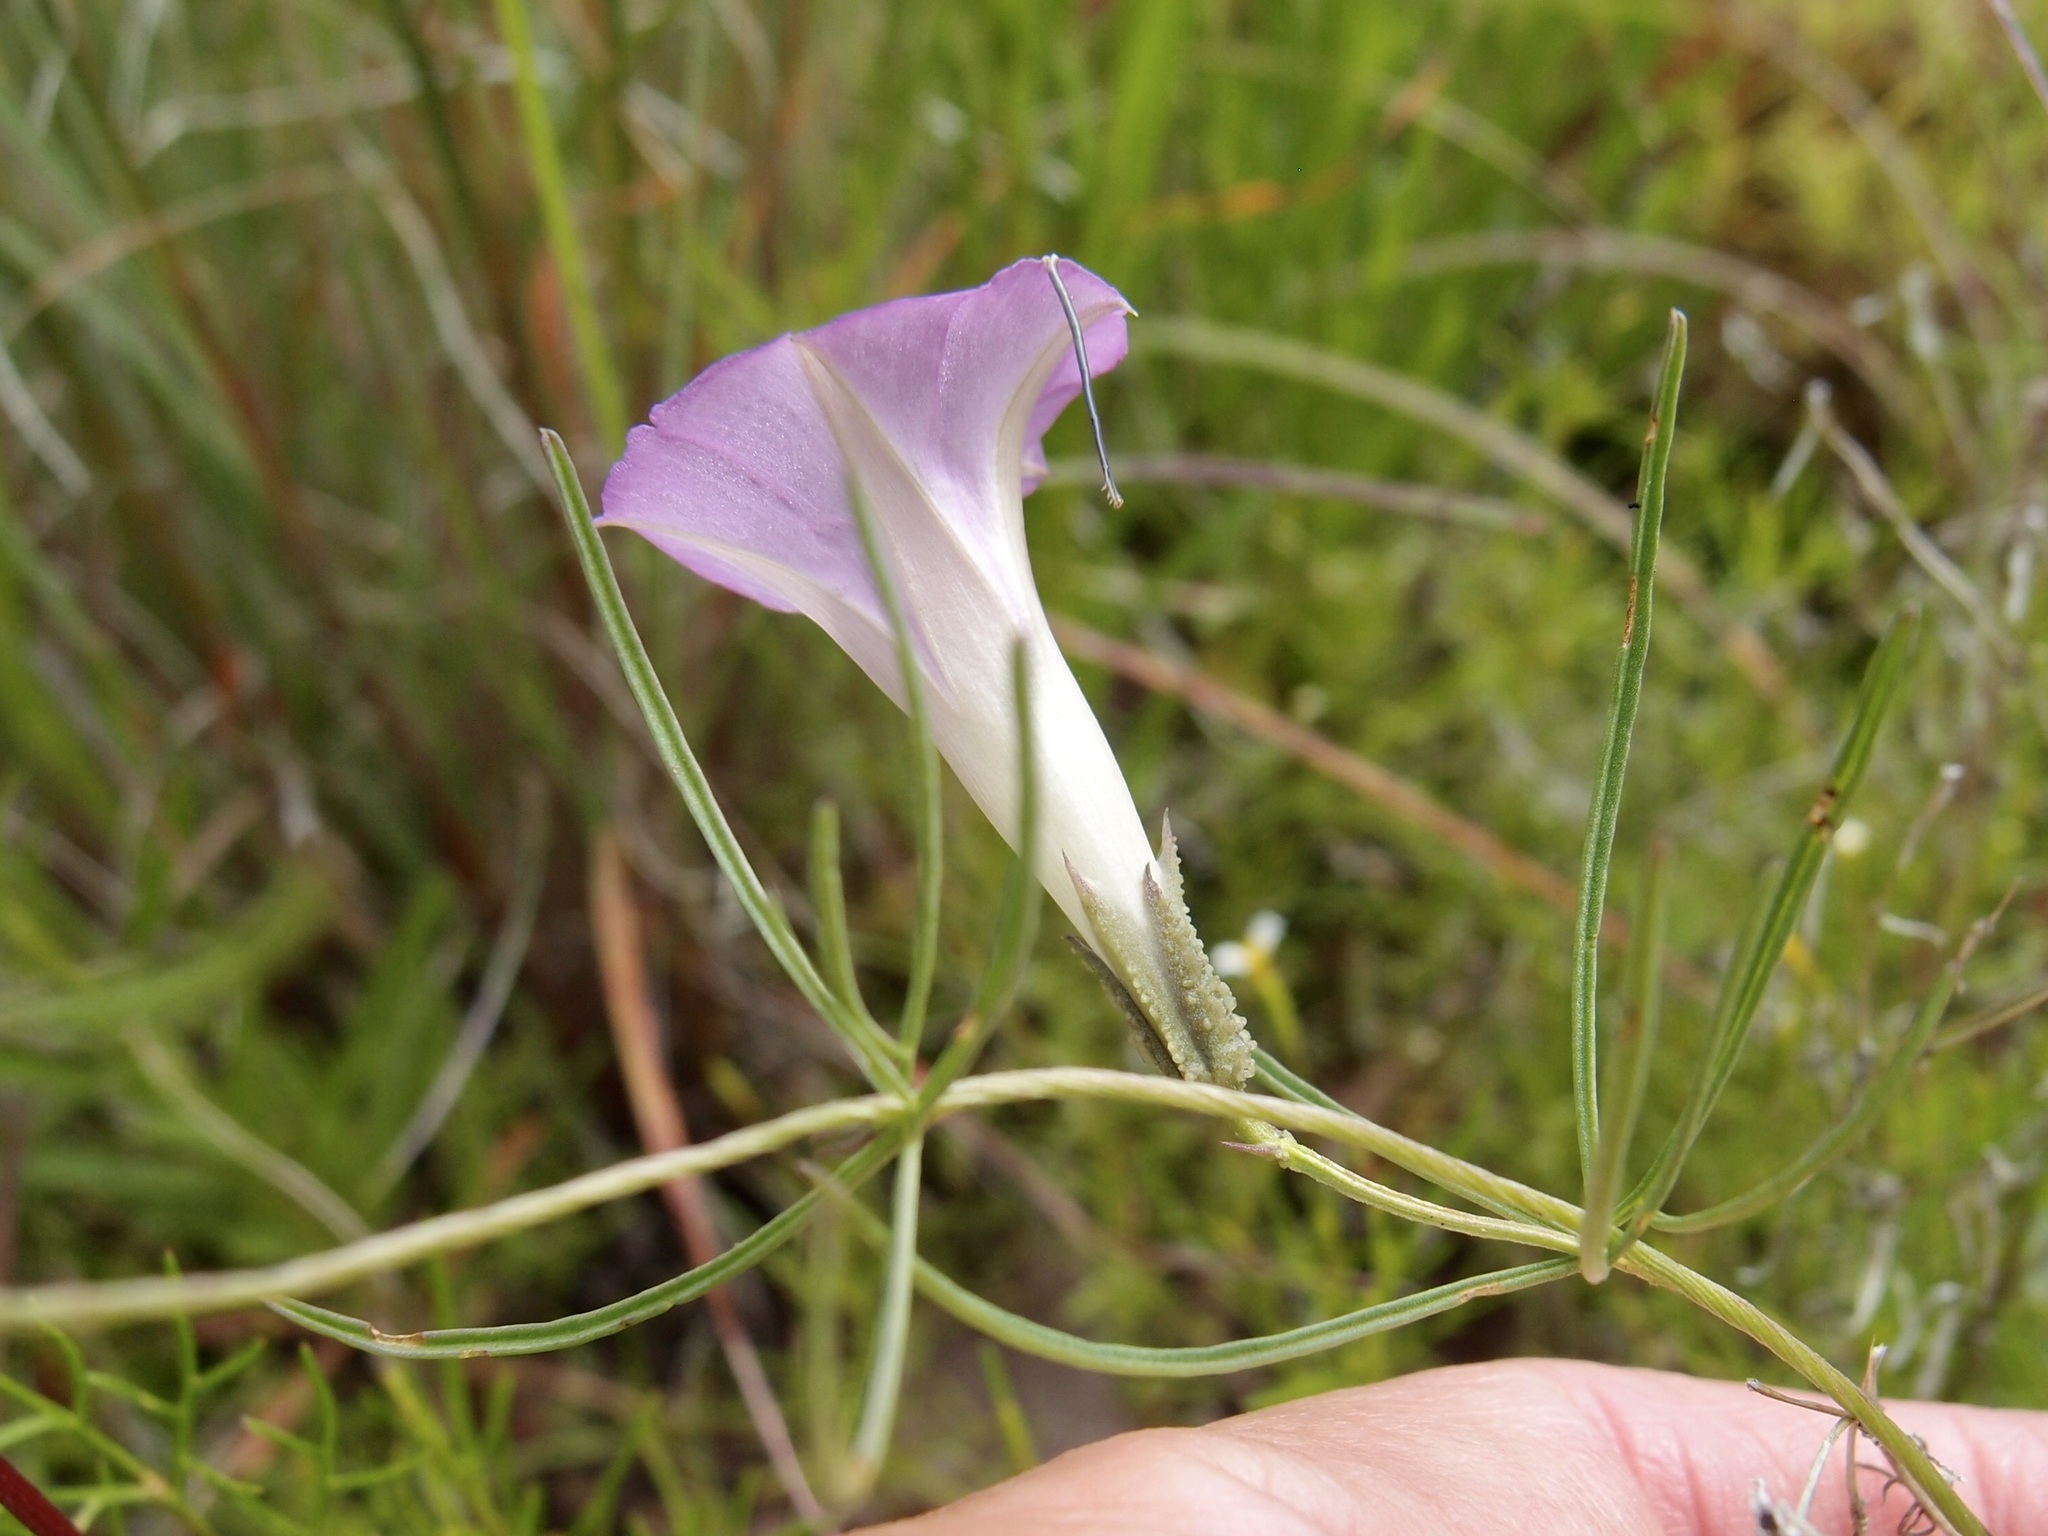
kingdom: Plantae
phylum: Tracheophyta
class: Magnoliopsida
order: Solanales
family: Convolvulaceae
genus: Ipomoea
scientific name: Ipomoea plummerae
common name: Plummer's morning-glory
